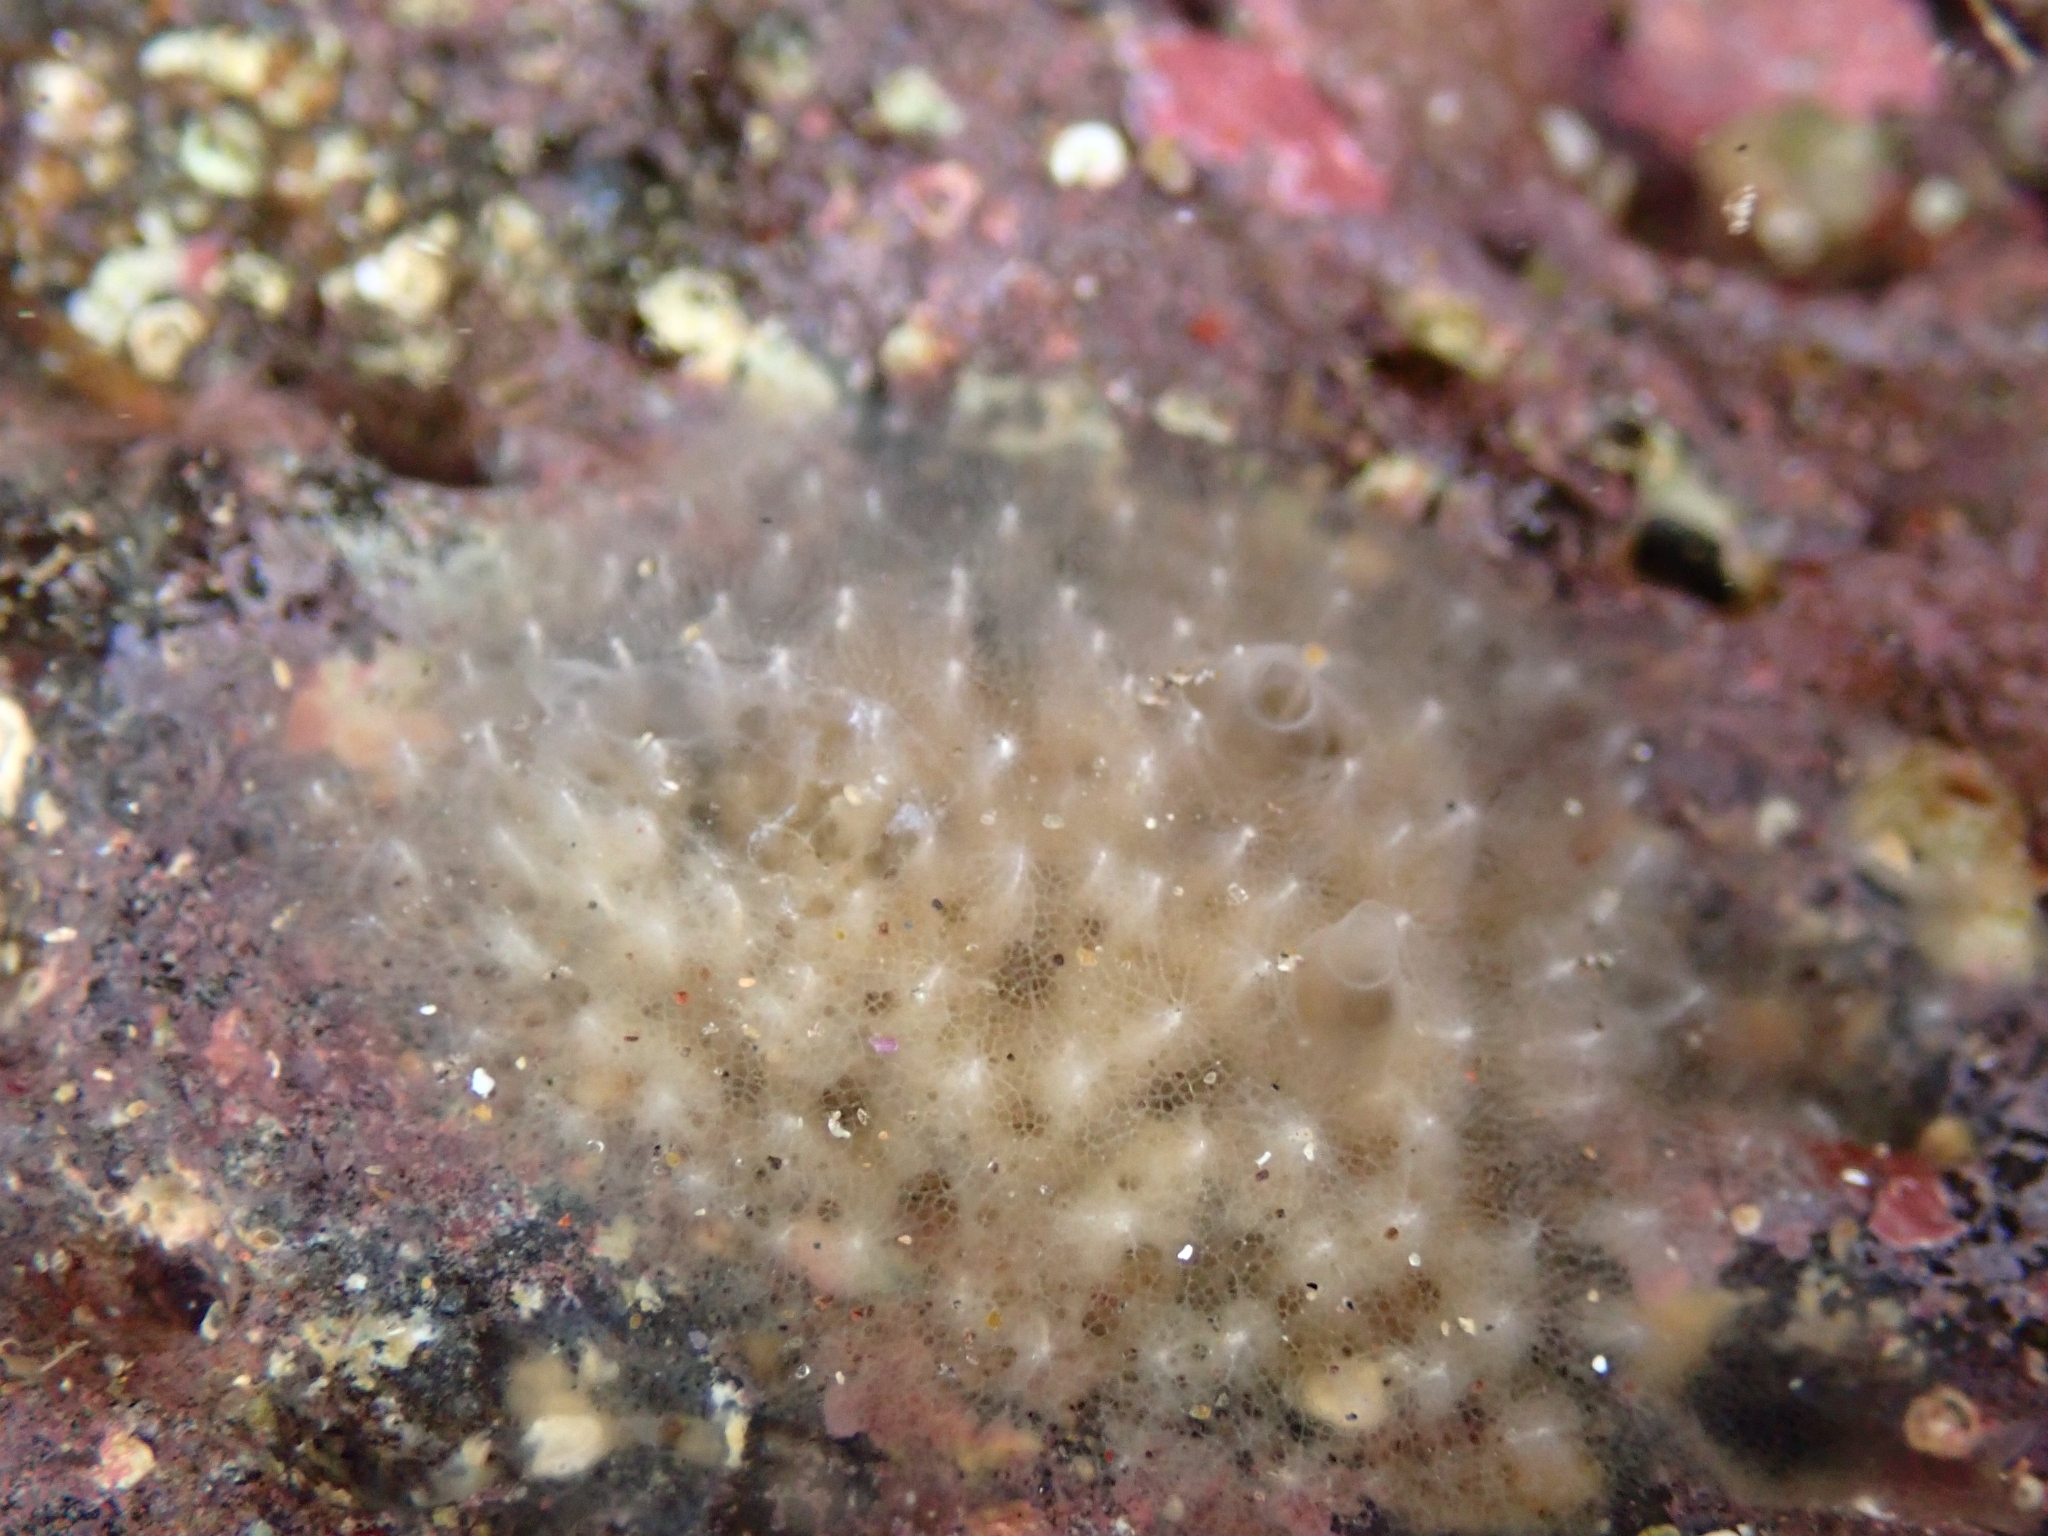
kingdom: Animalia
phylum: Porifera
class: Demospongiae
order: Dictyoceratida
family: Dysideidae
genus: Dysidea
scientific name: Dysidea fragilis
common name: Goosebump sponge
